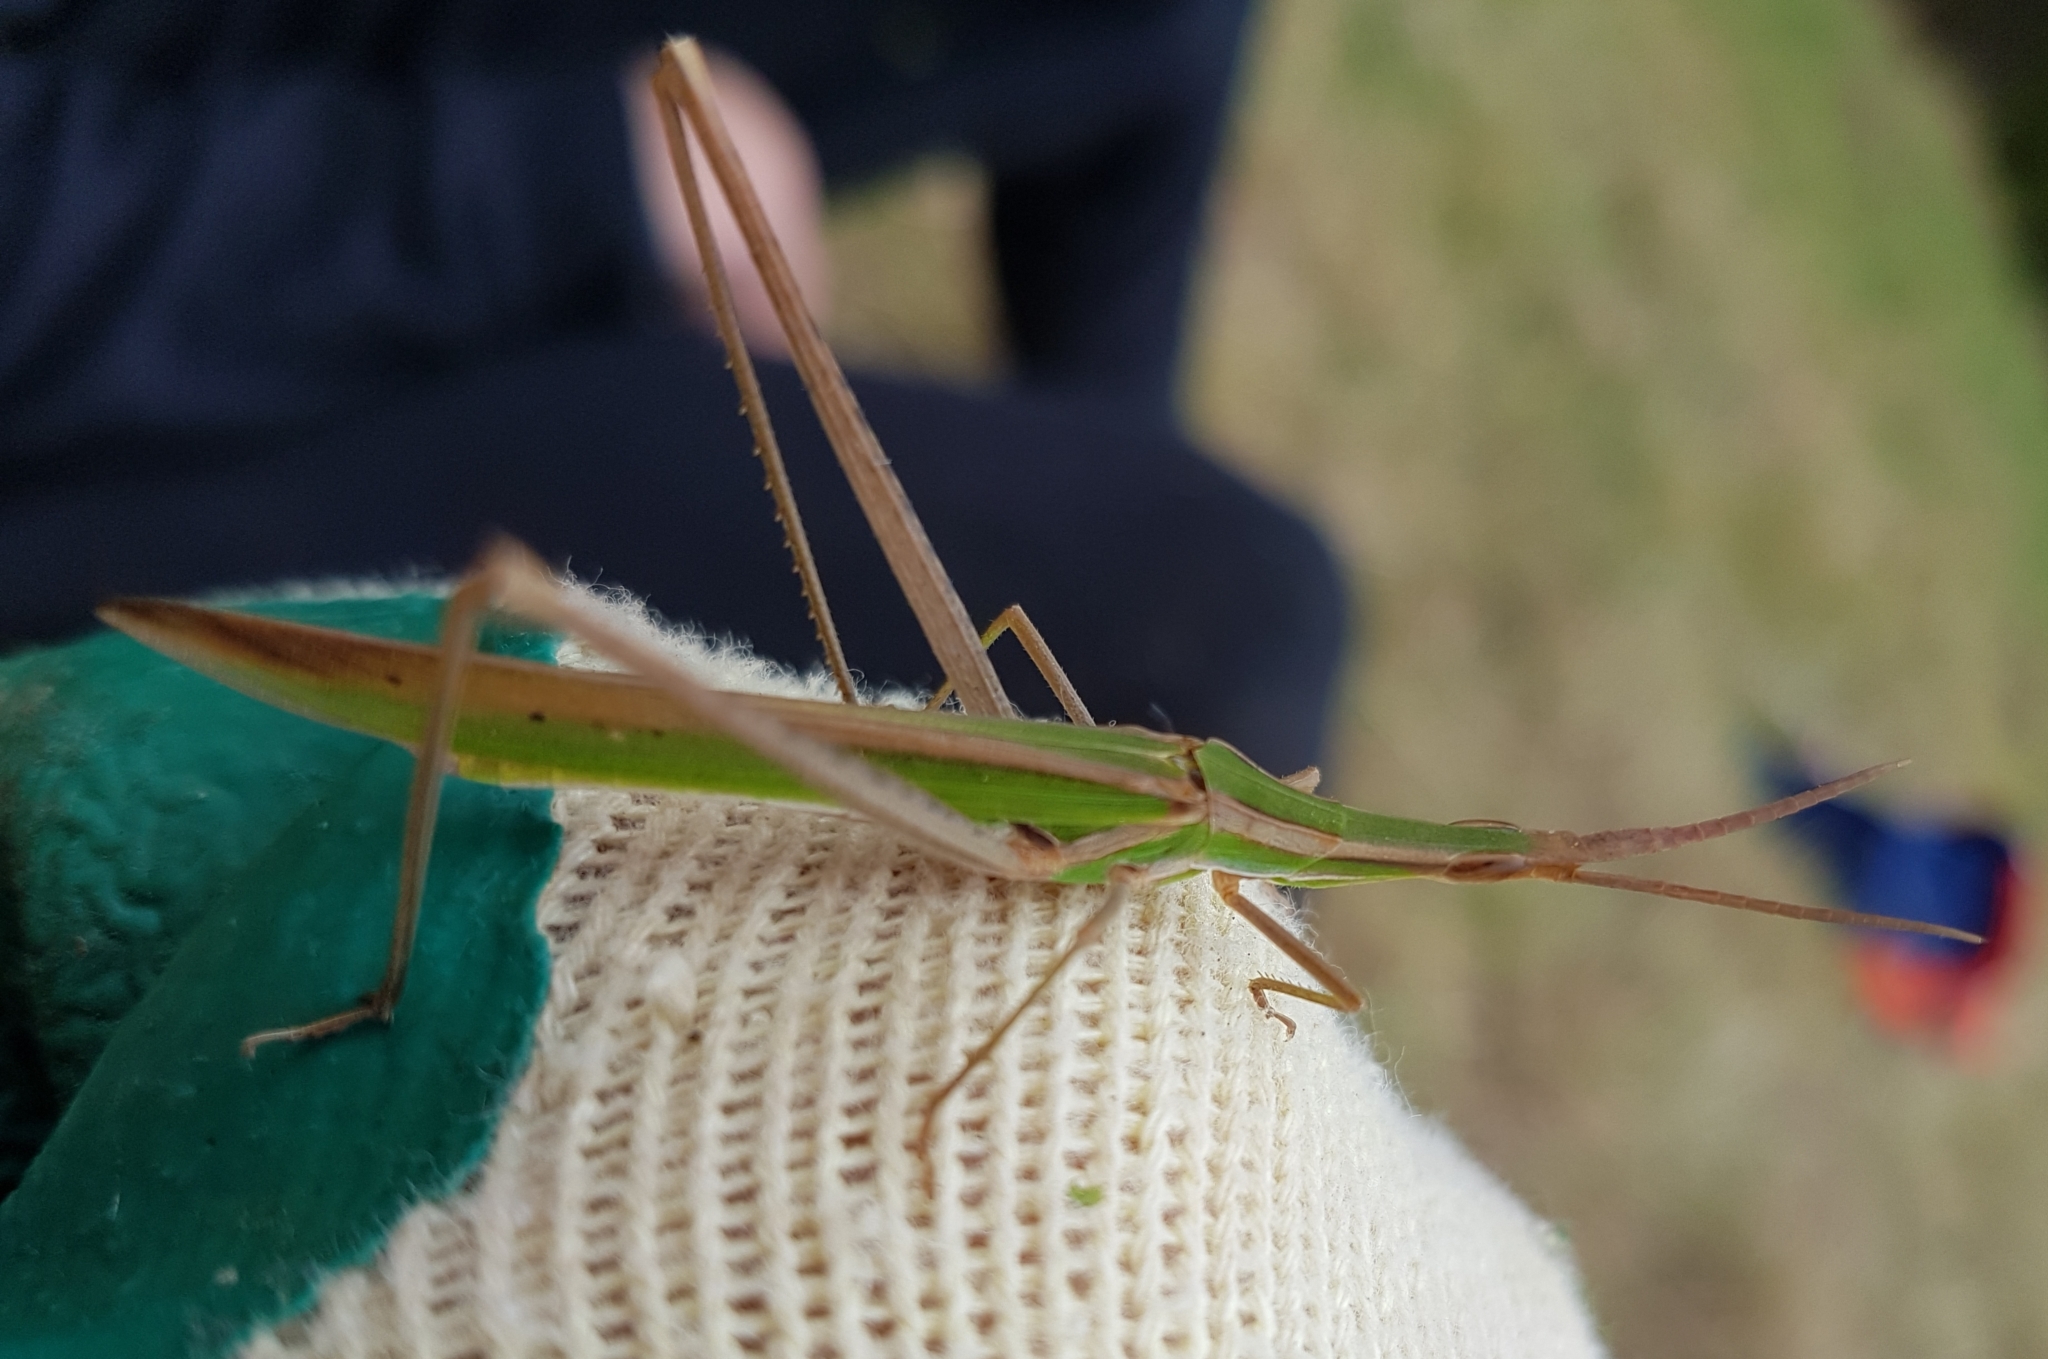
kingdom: Animalia
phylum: Arthropoda
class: Insecta
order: Orthoptera
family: Acrididae
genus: Acrida
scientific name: Acrida conica
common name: Giant green slantface
